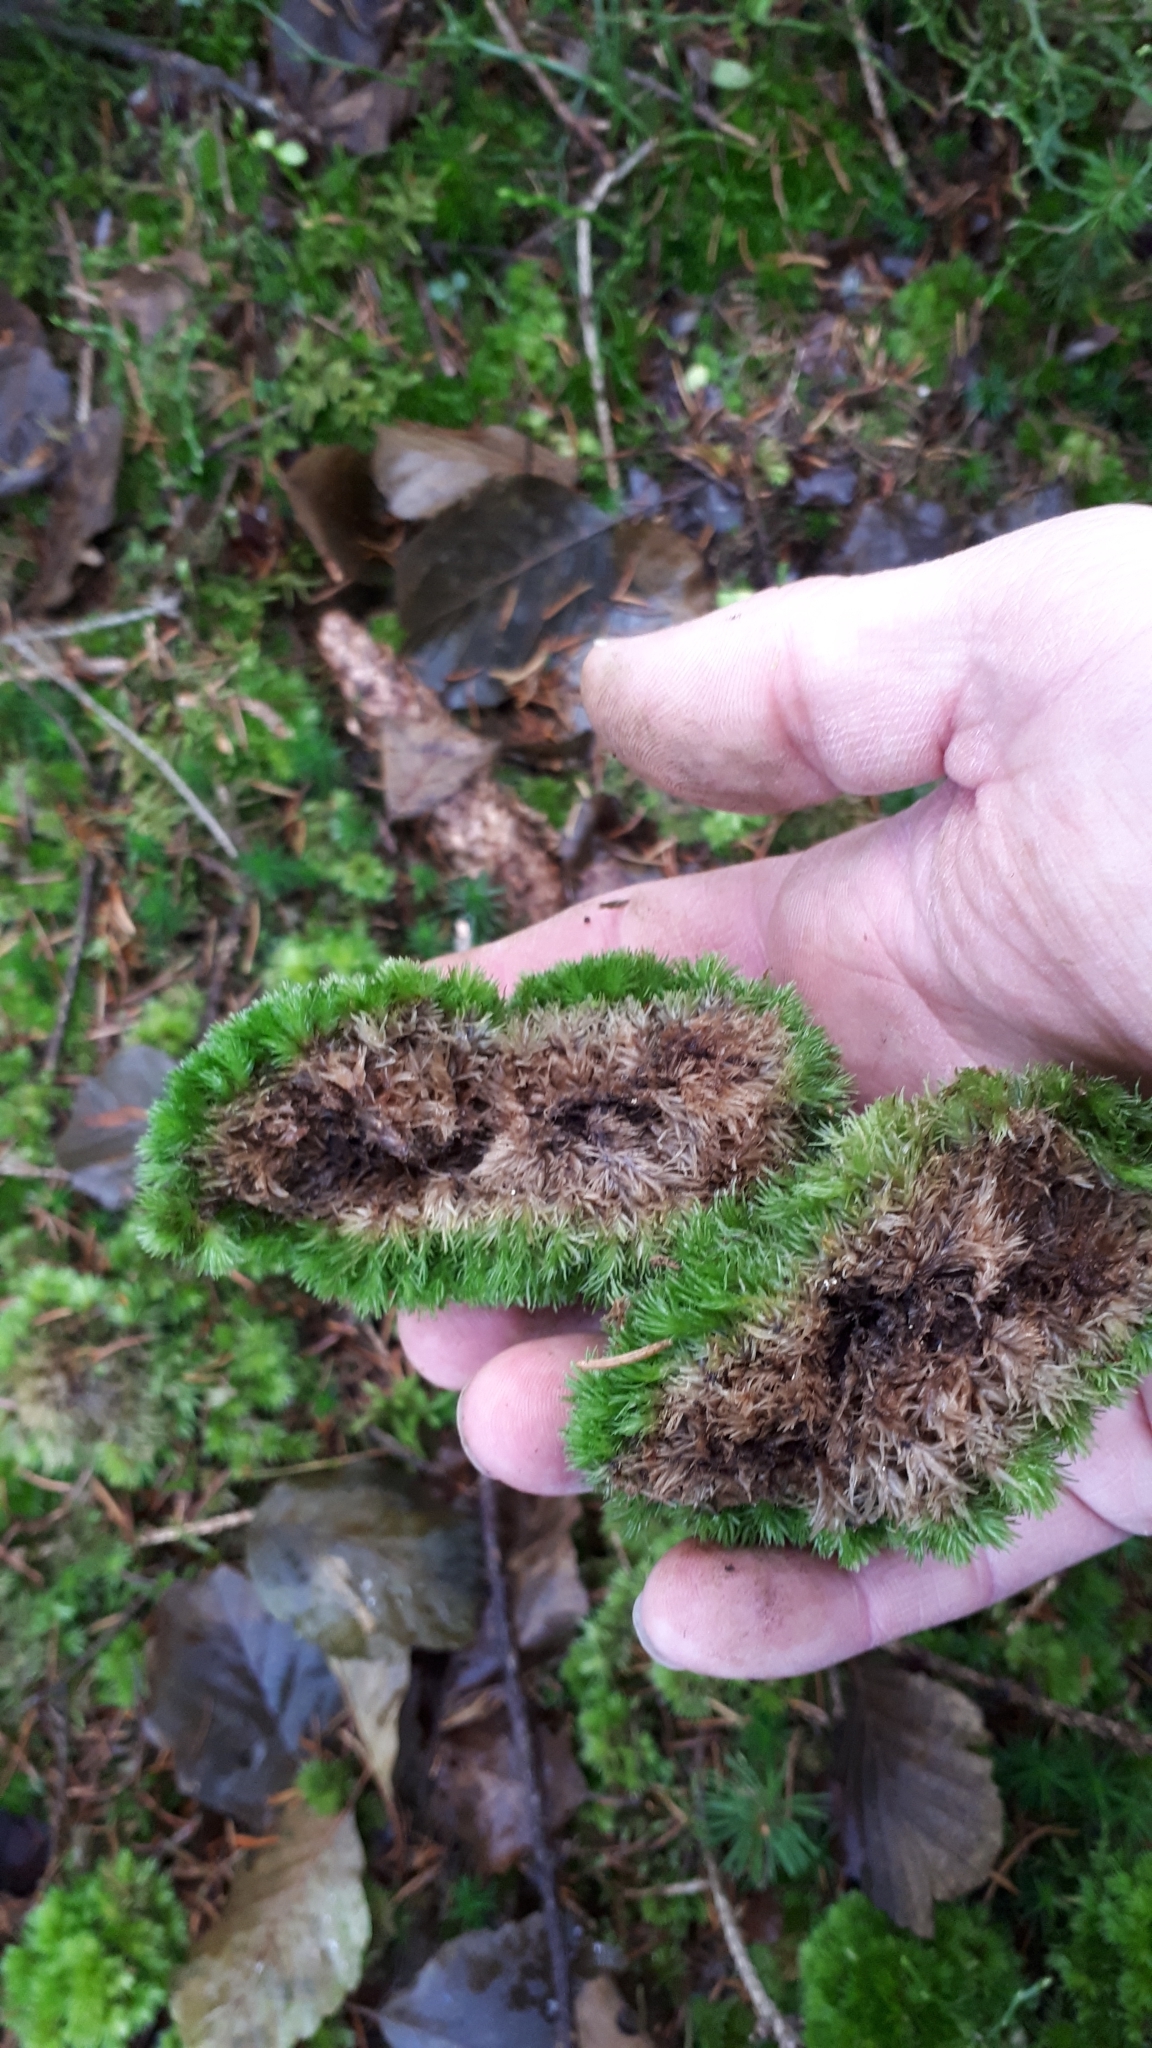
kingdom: Plantae
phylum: Bryophyta
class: Bryopsida
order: Dicranales
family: Leucobryaceae
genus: Leucobryum
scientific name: Leucobryum glaucum
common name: Large white-moss
